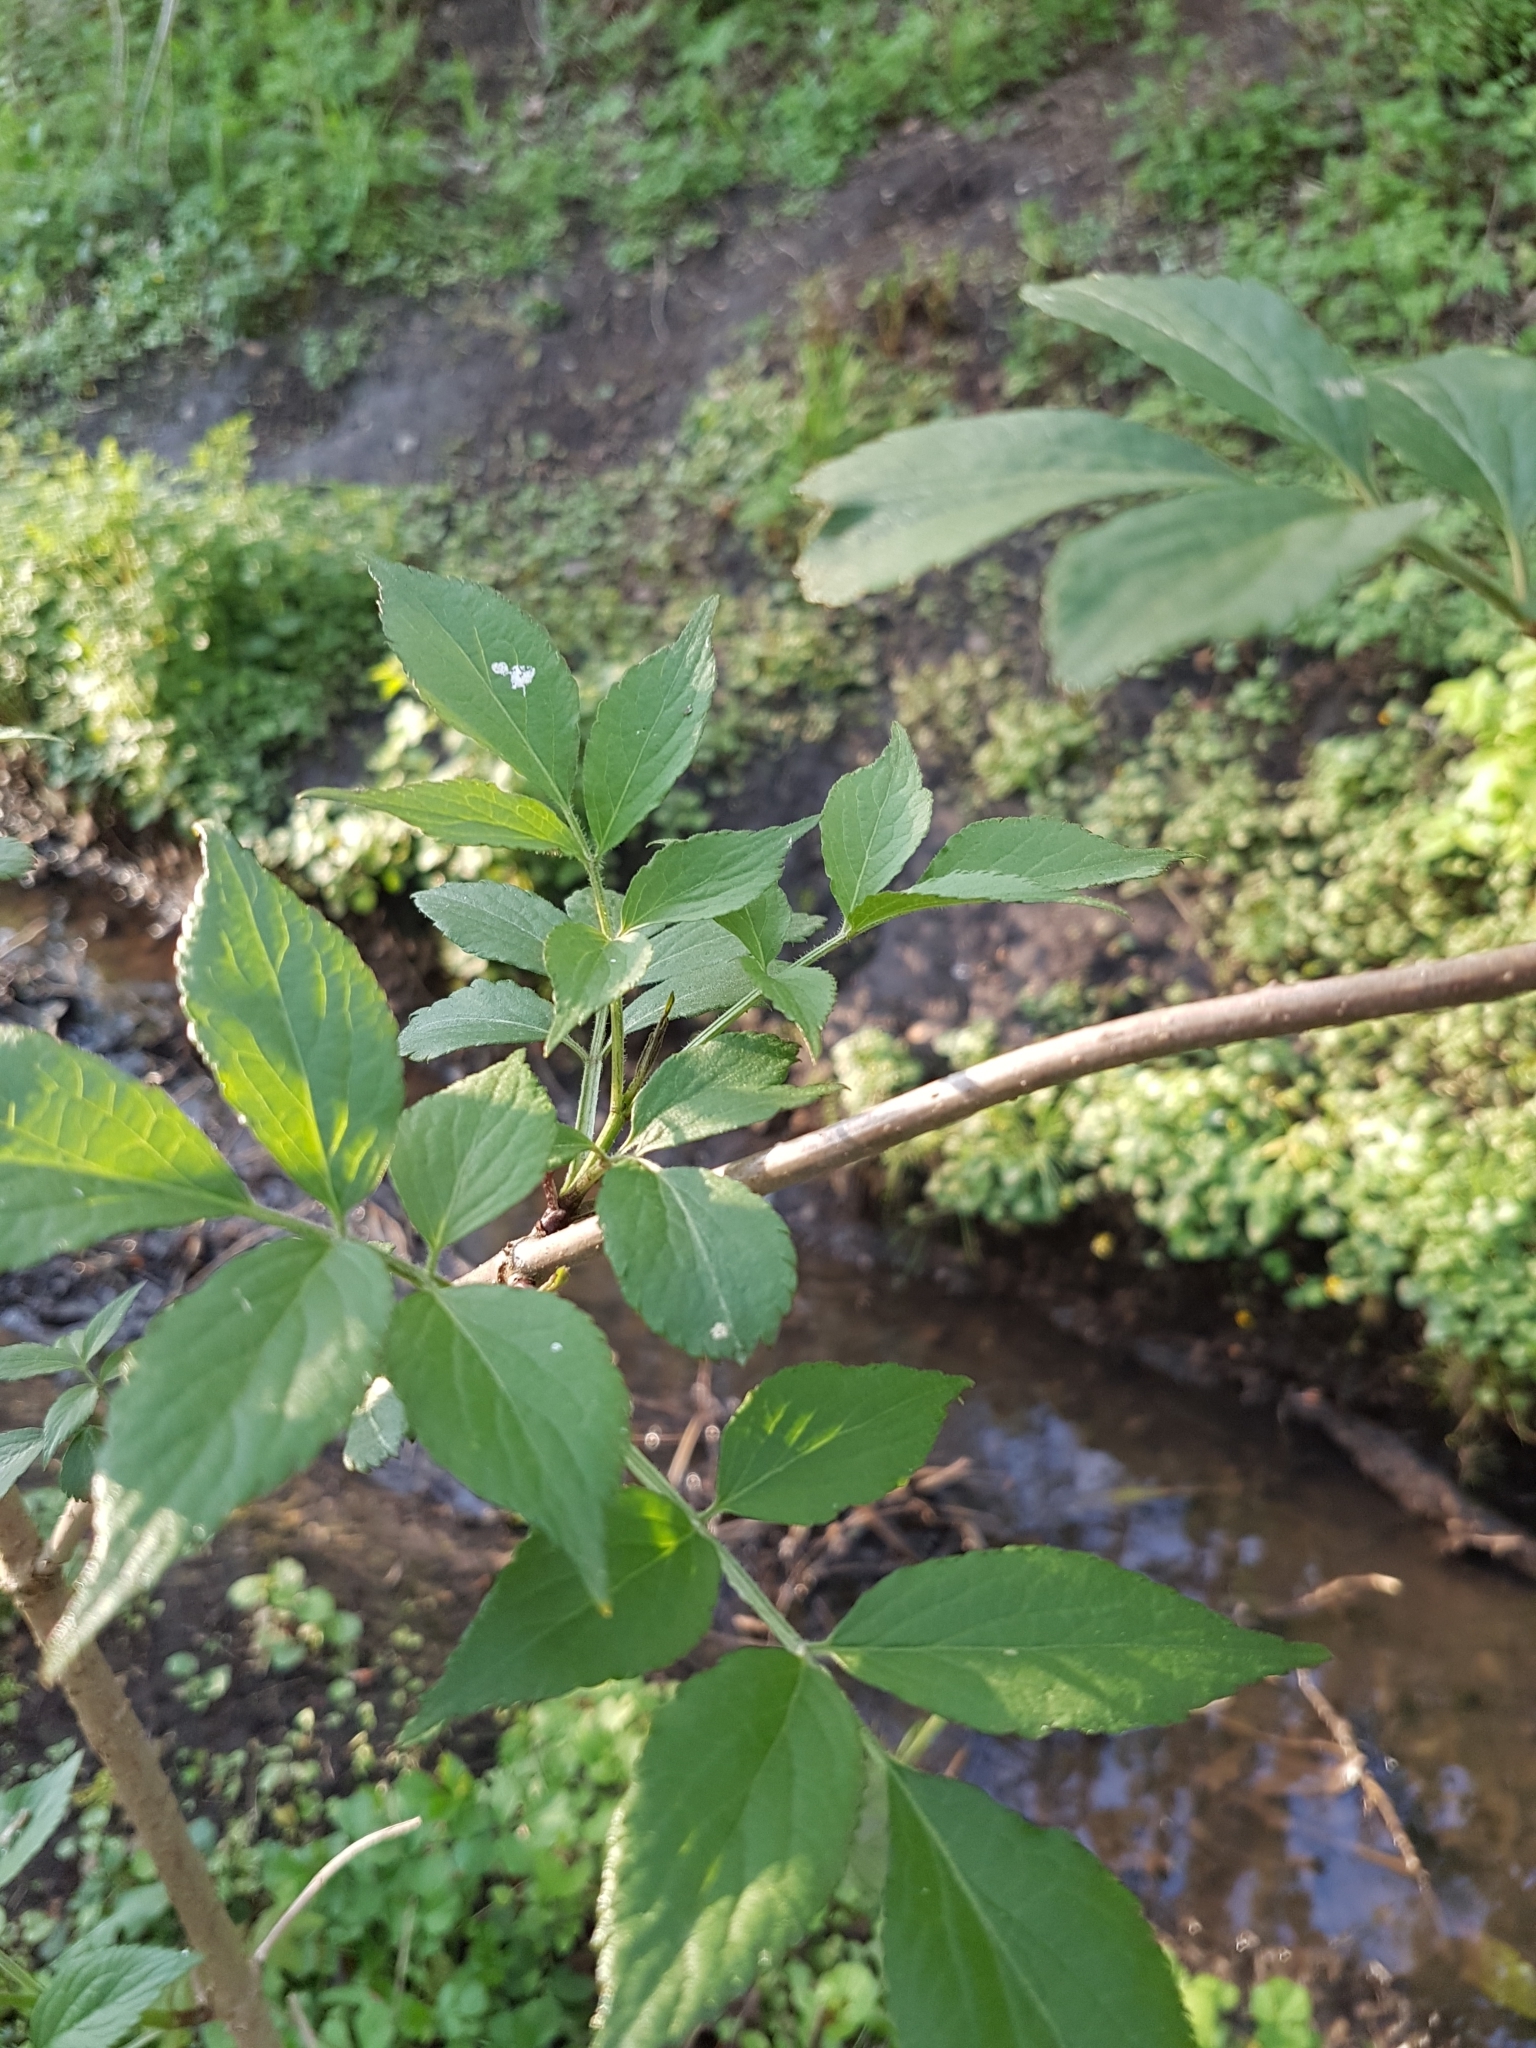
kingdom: Plantae
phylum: Tracheophyta
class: Magnoliopsida
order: Dipsacales
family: Viburnaceae
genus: Sambucus
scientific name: Sambucus nigra
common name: Elder
